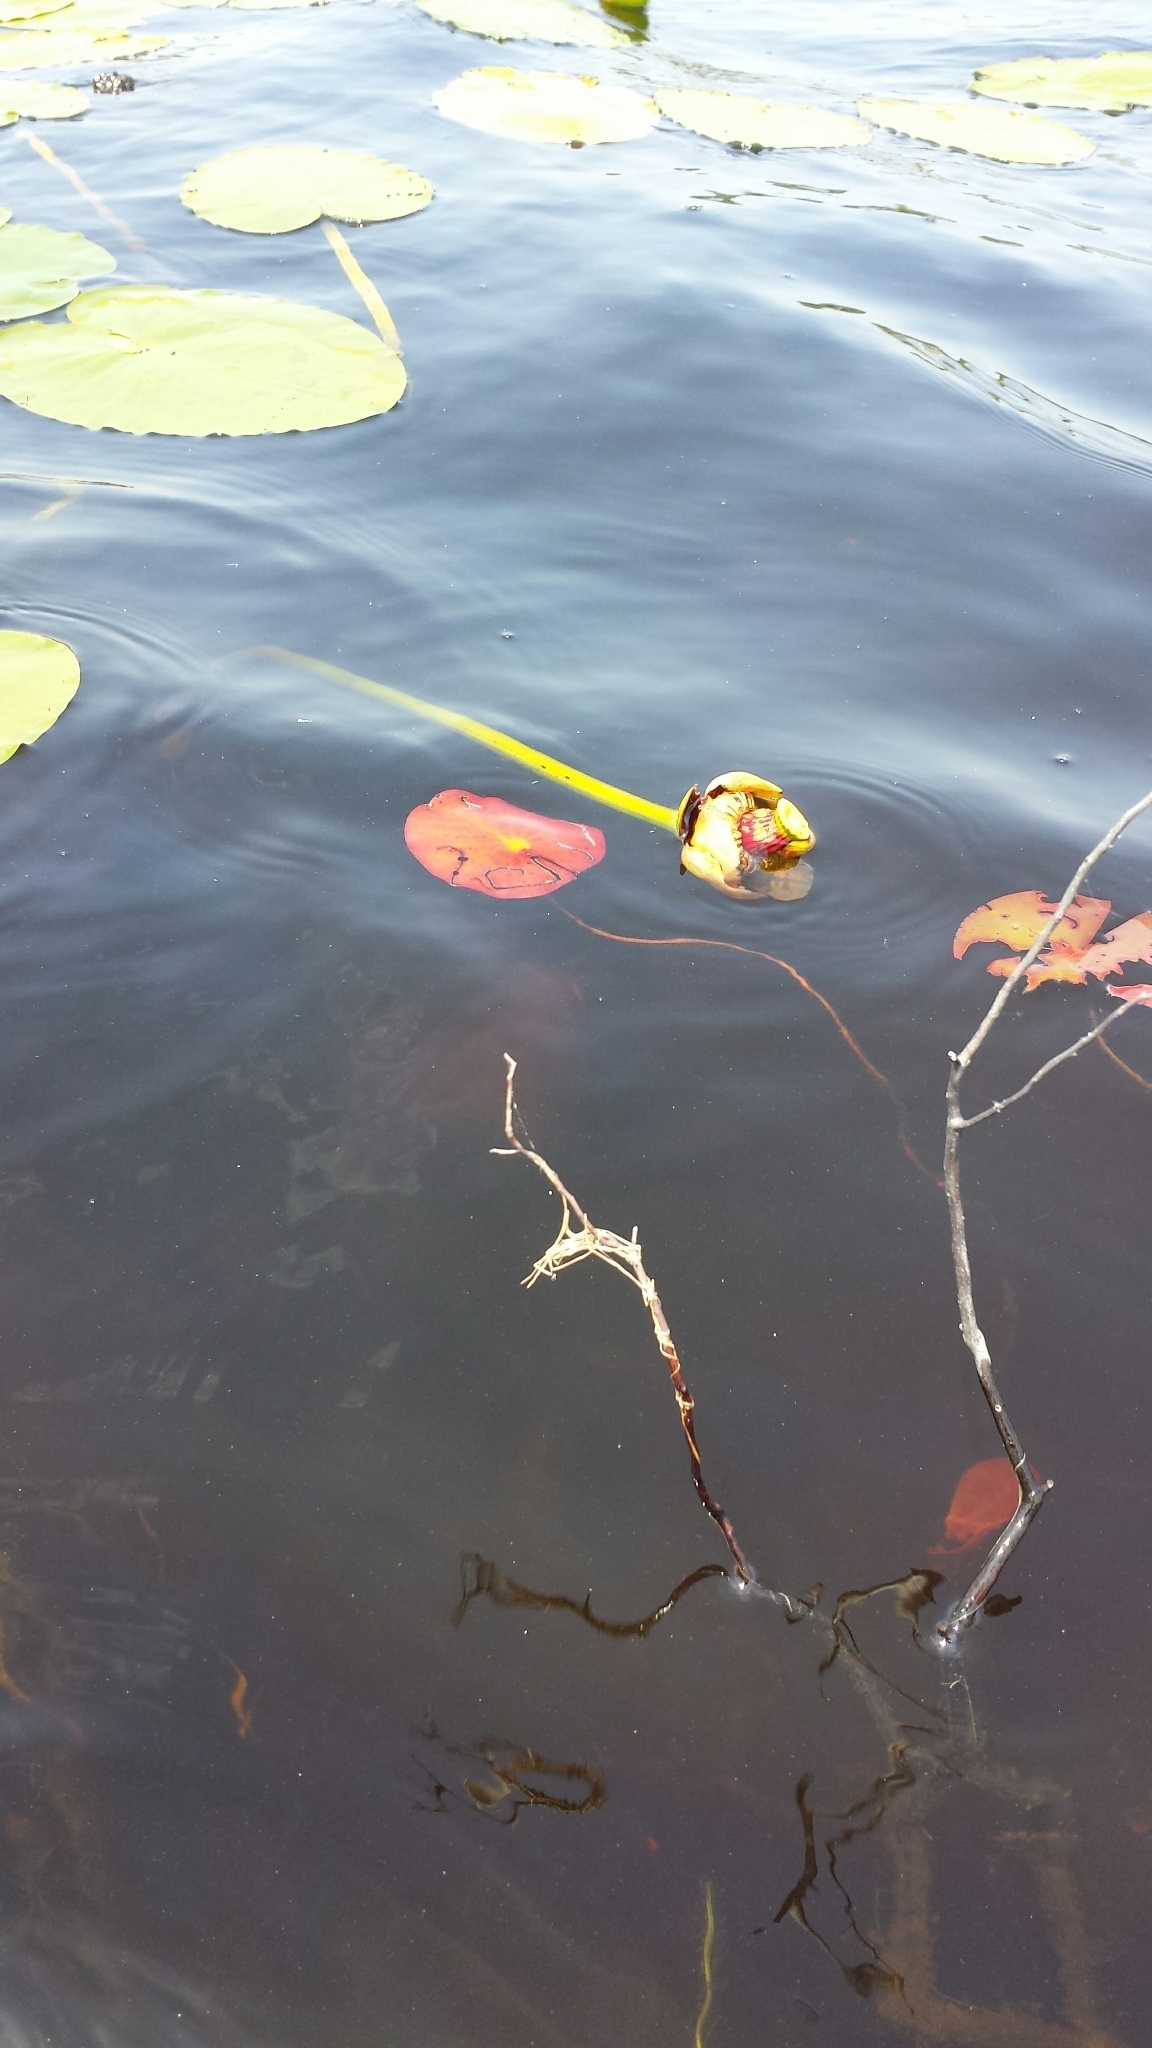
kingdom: Plantae
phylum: Tracheophyta
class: Magnoliopsida
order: Nymphaeales
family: Nymphaeaceae
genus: Nuphar
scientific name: Nuphar variegata
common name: Beaver-root
